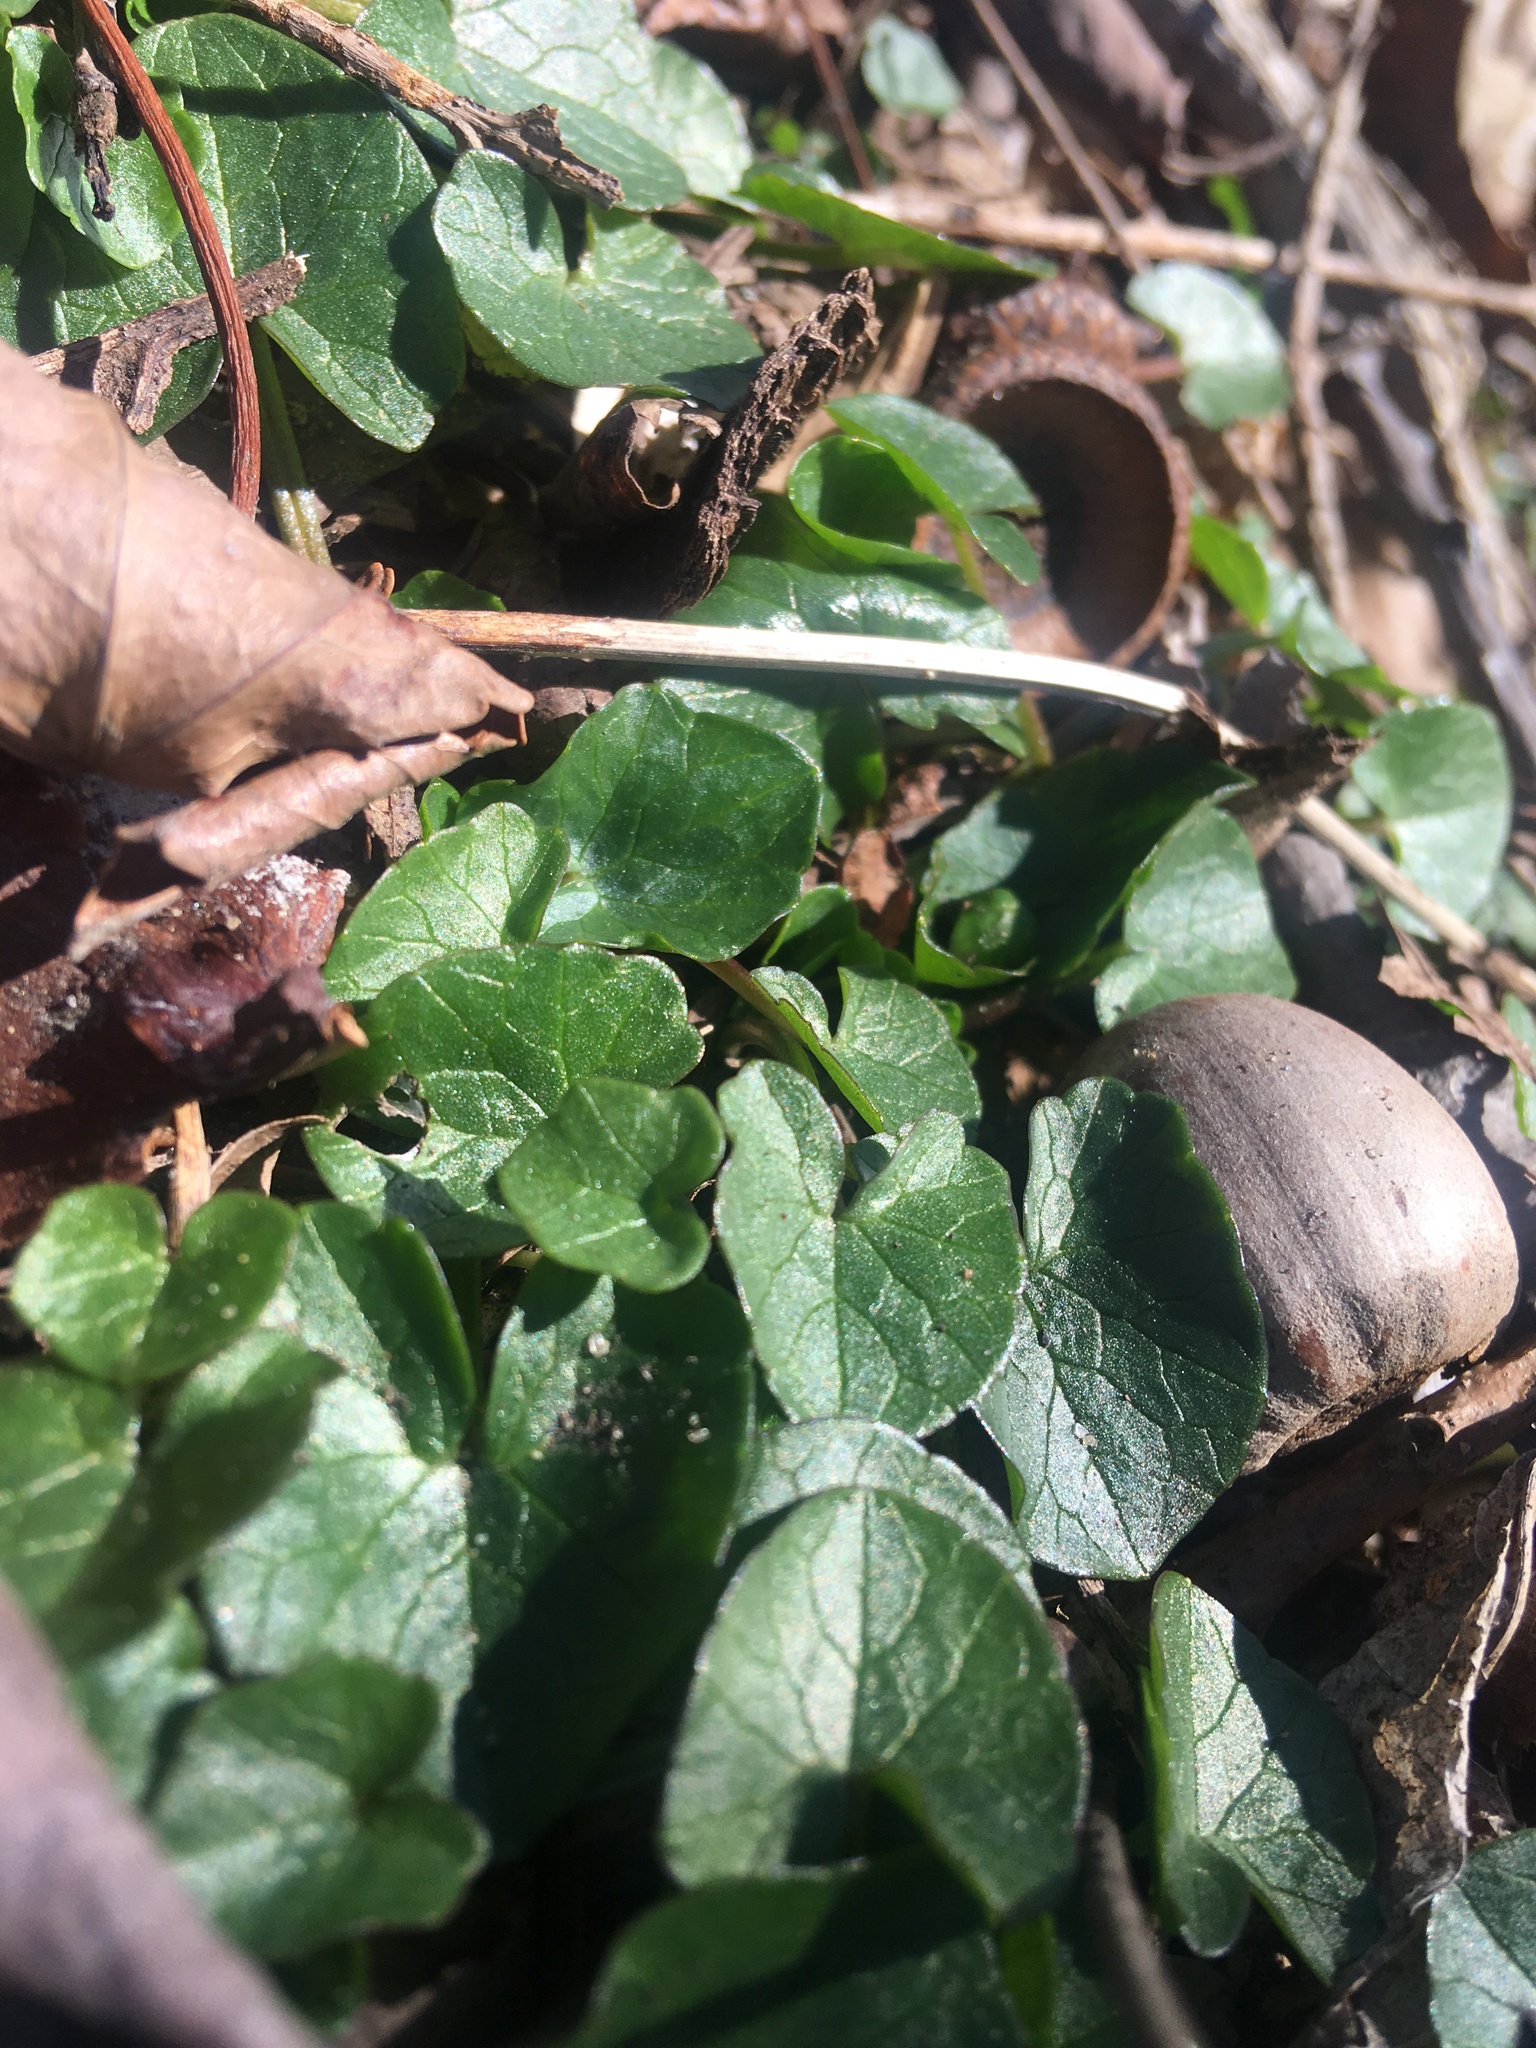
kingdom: Plantae
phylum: Tracheophyta
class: Magnoliopsida
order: Ranunculales
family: Ranunculaceae
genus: Ficaria
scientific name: Ficaria verna
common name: Lesser celandine
